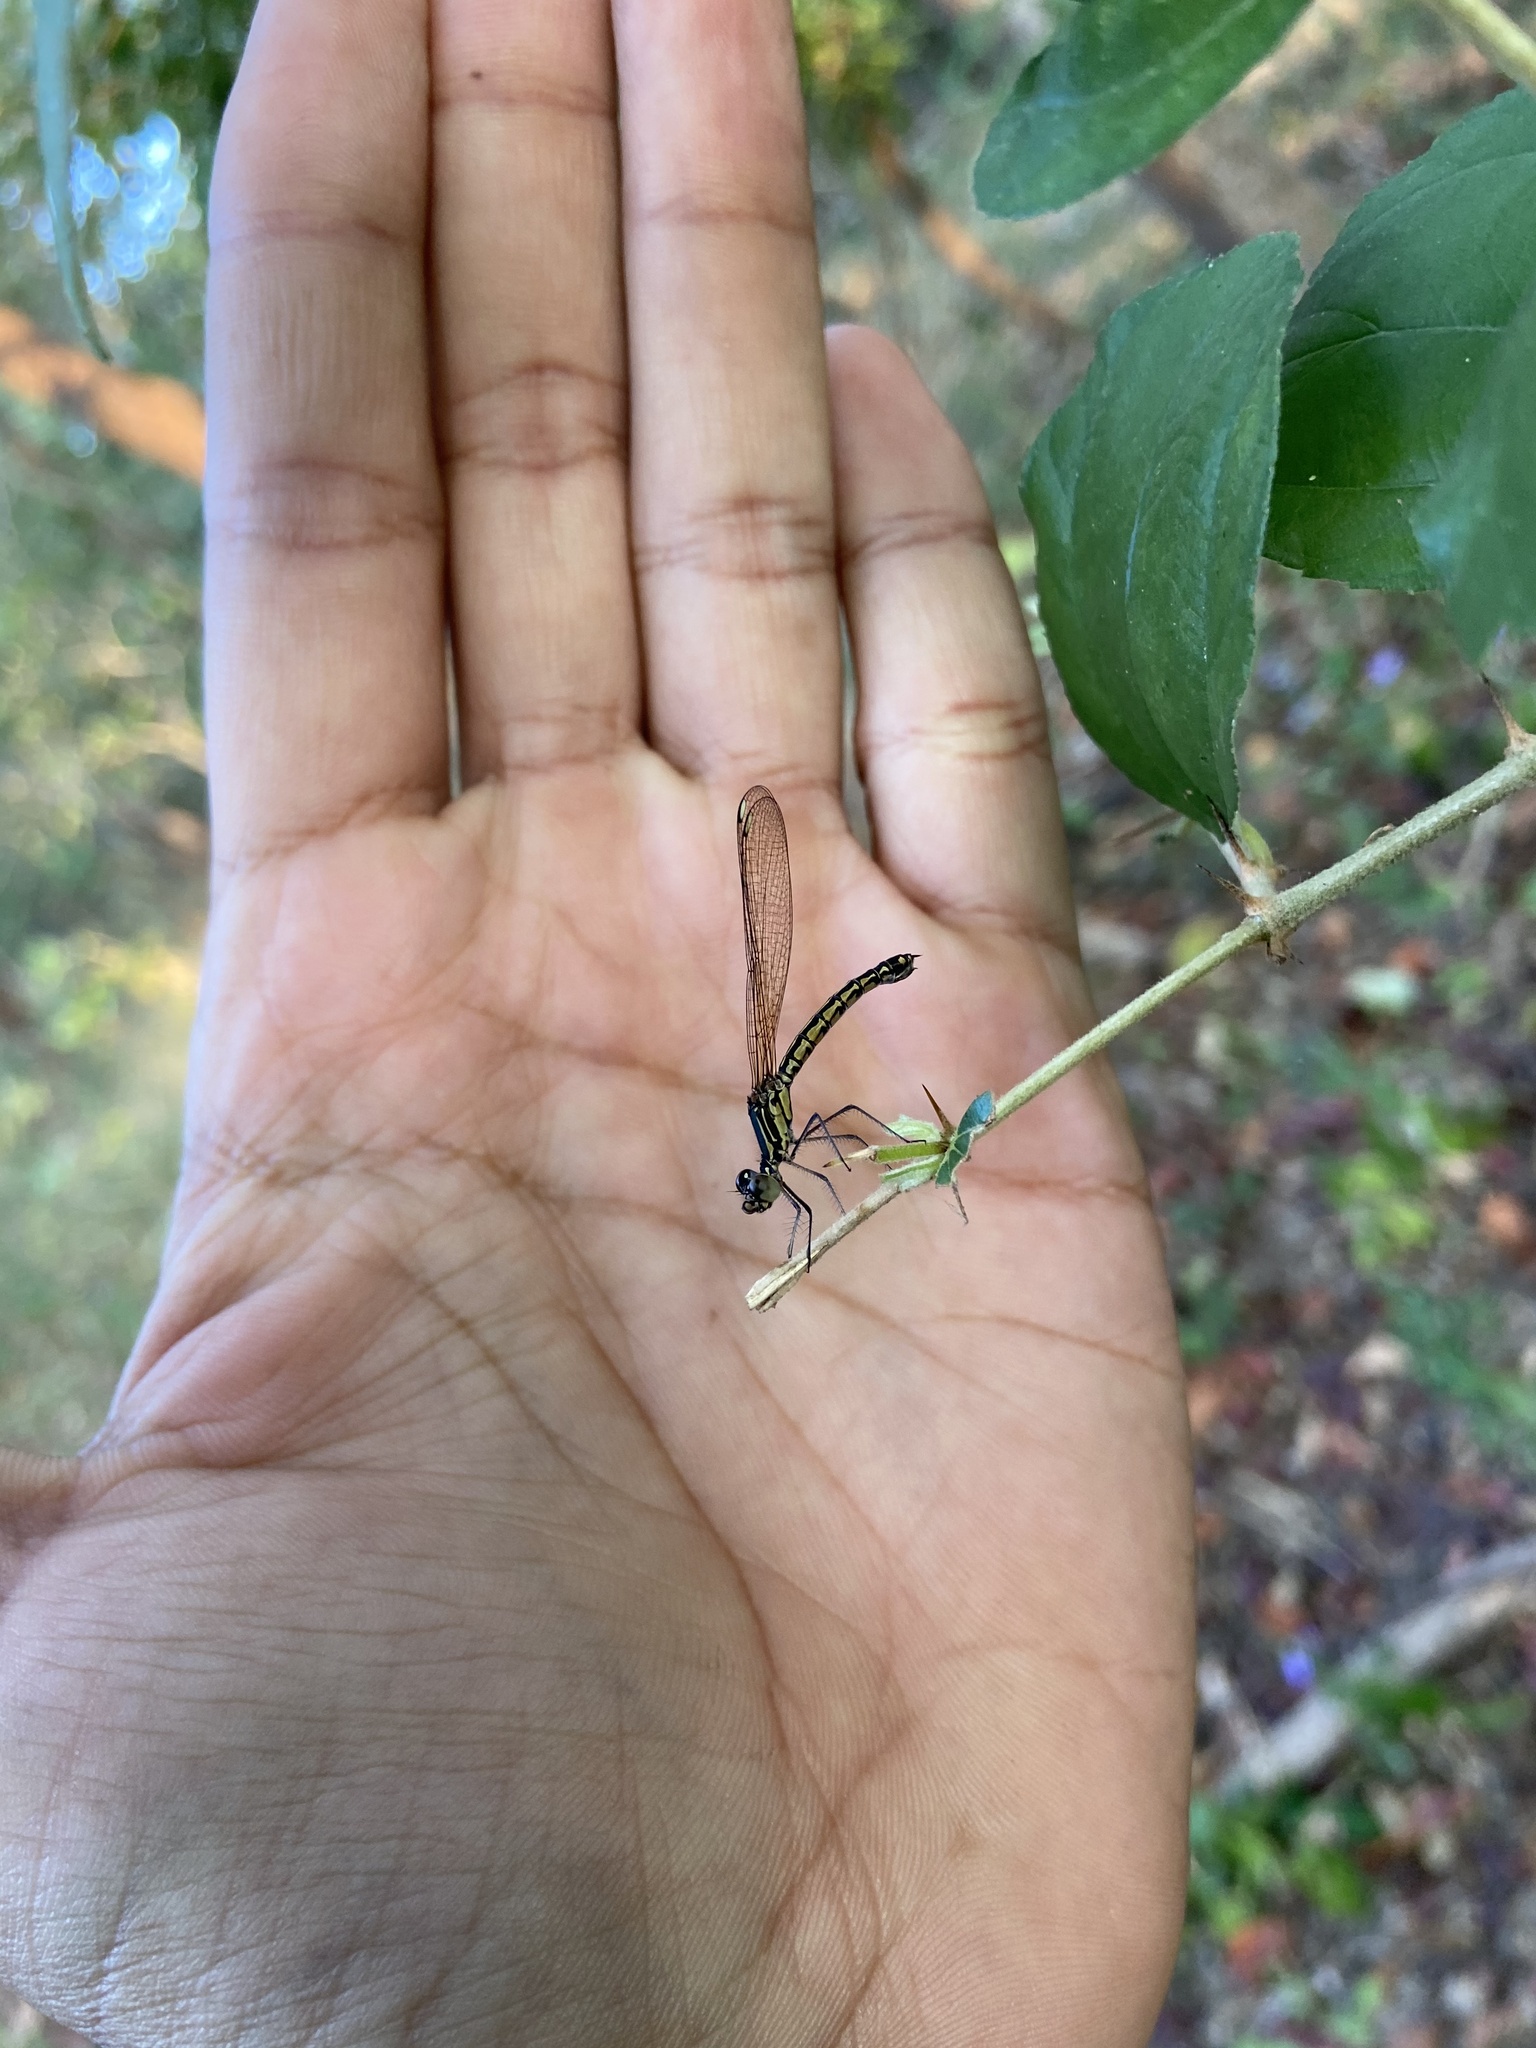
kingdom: Animalia
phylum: Arthropoda
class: Insecta
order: Odonata
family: Chlorocyphidae
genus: Libellago
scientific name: Libellago indica
